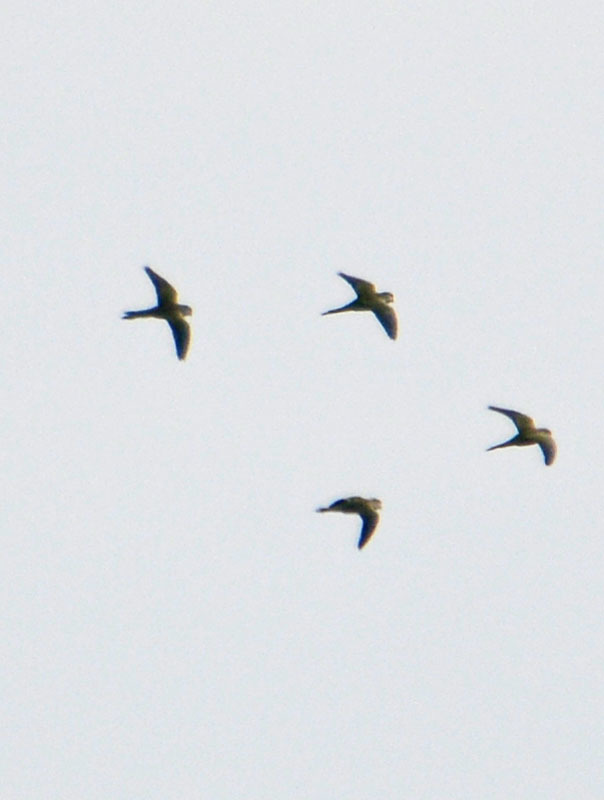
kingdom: Animalia
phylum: Chordata
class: Aves
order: Psittaciformes
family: Psittacidae
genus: Myiopsitta
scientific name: Myiopsitta monachus
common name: Monk parakeet
